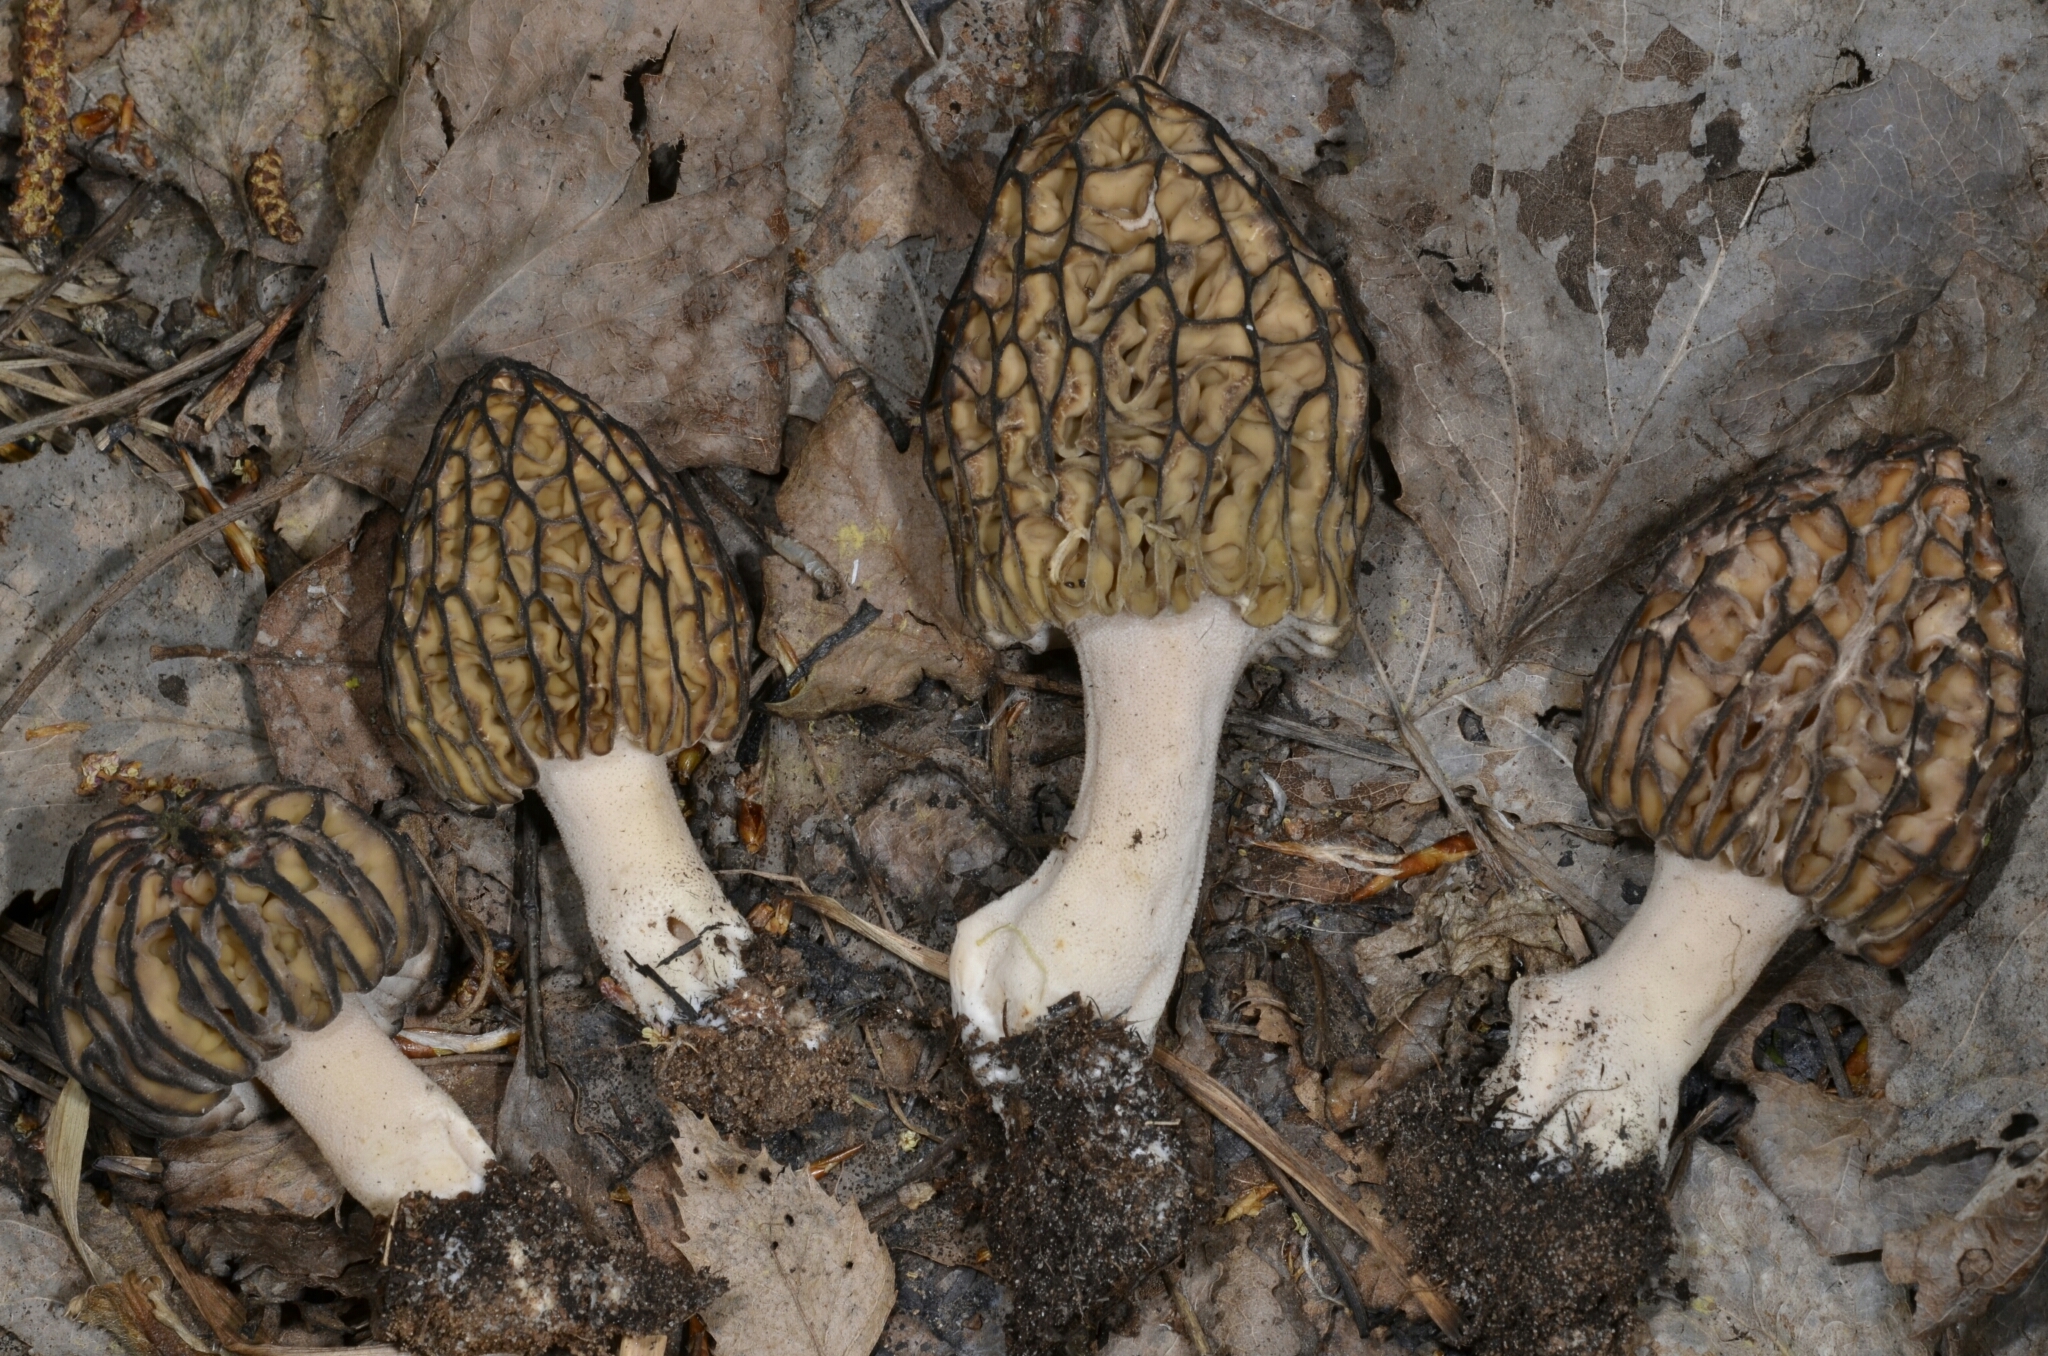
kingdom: Fungi
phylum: Ascomycota
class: Pezizomycetes
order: Pezizales
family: Morchellaceae
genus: Morchella
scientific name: Morchella
